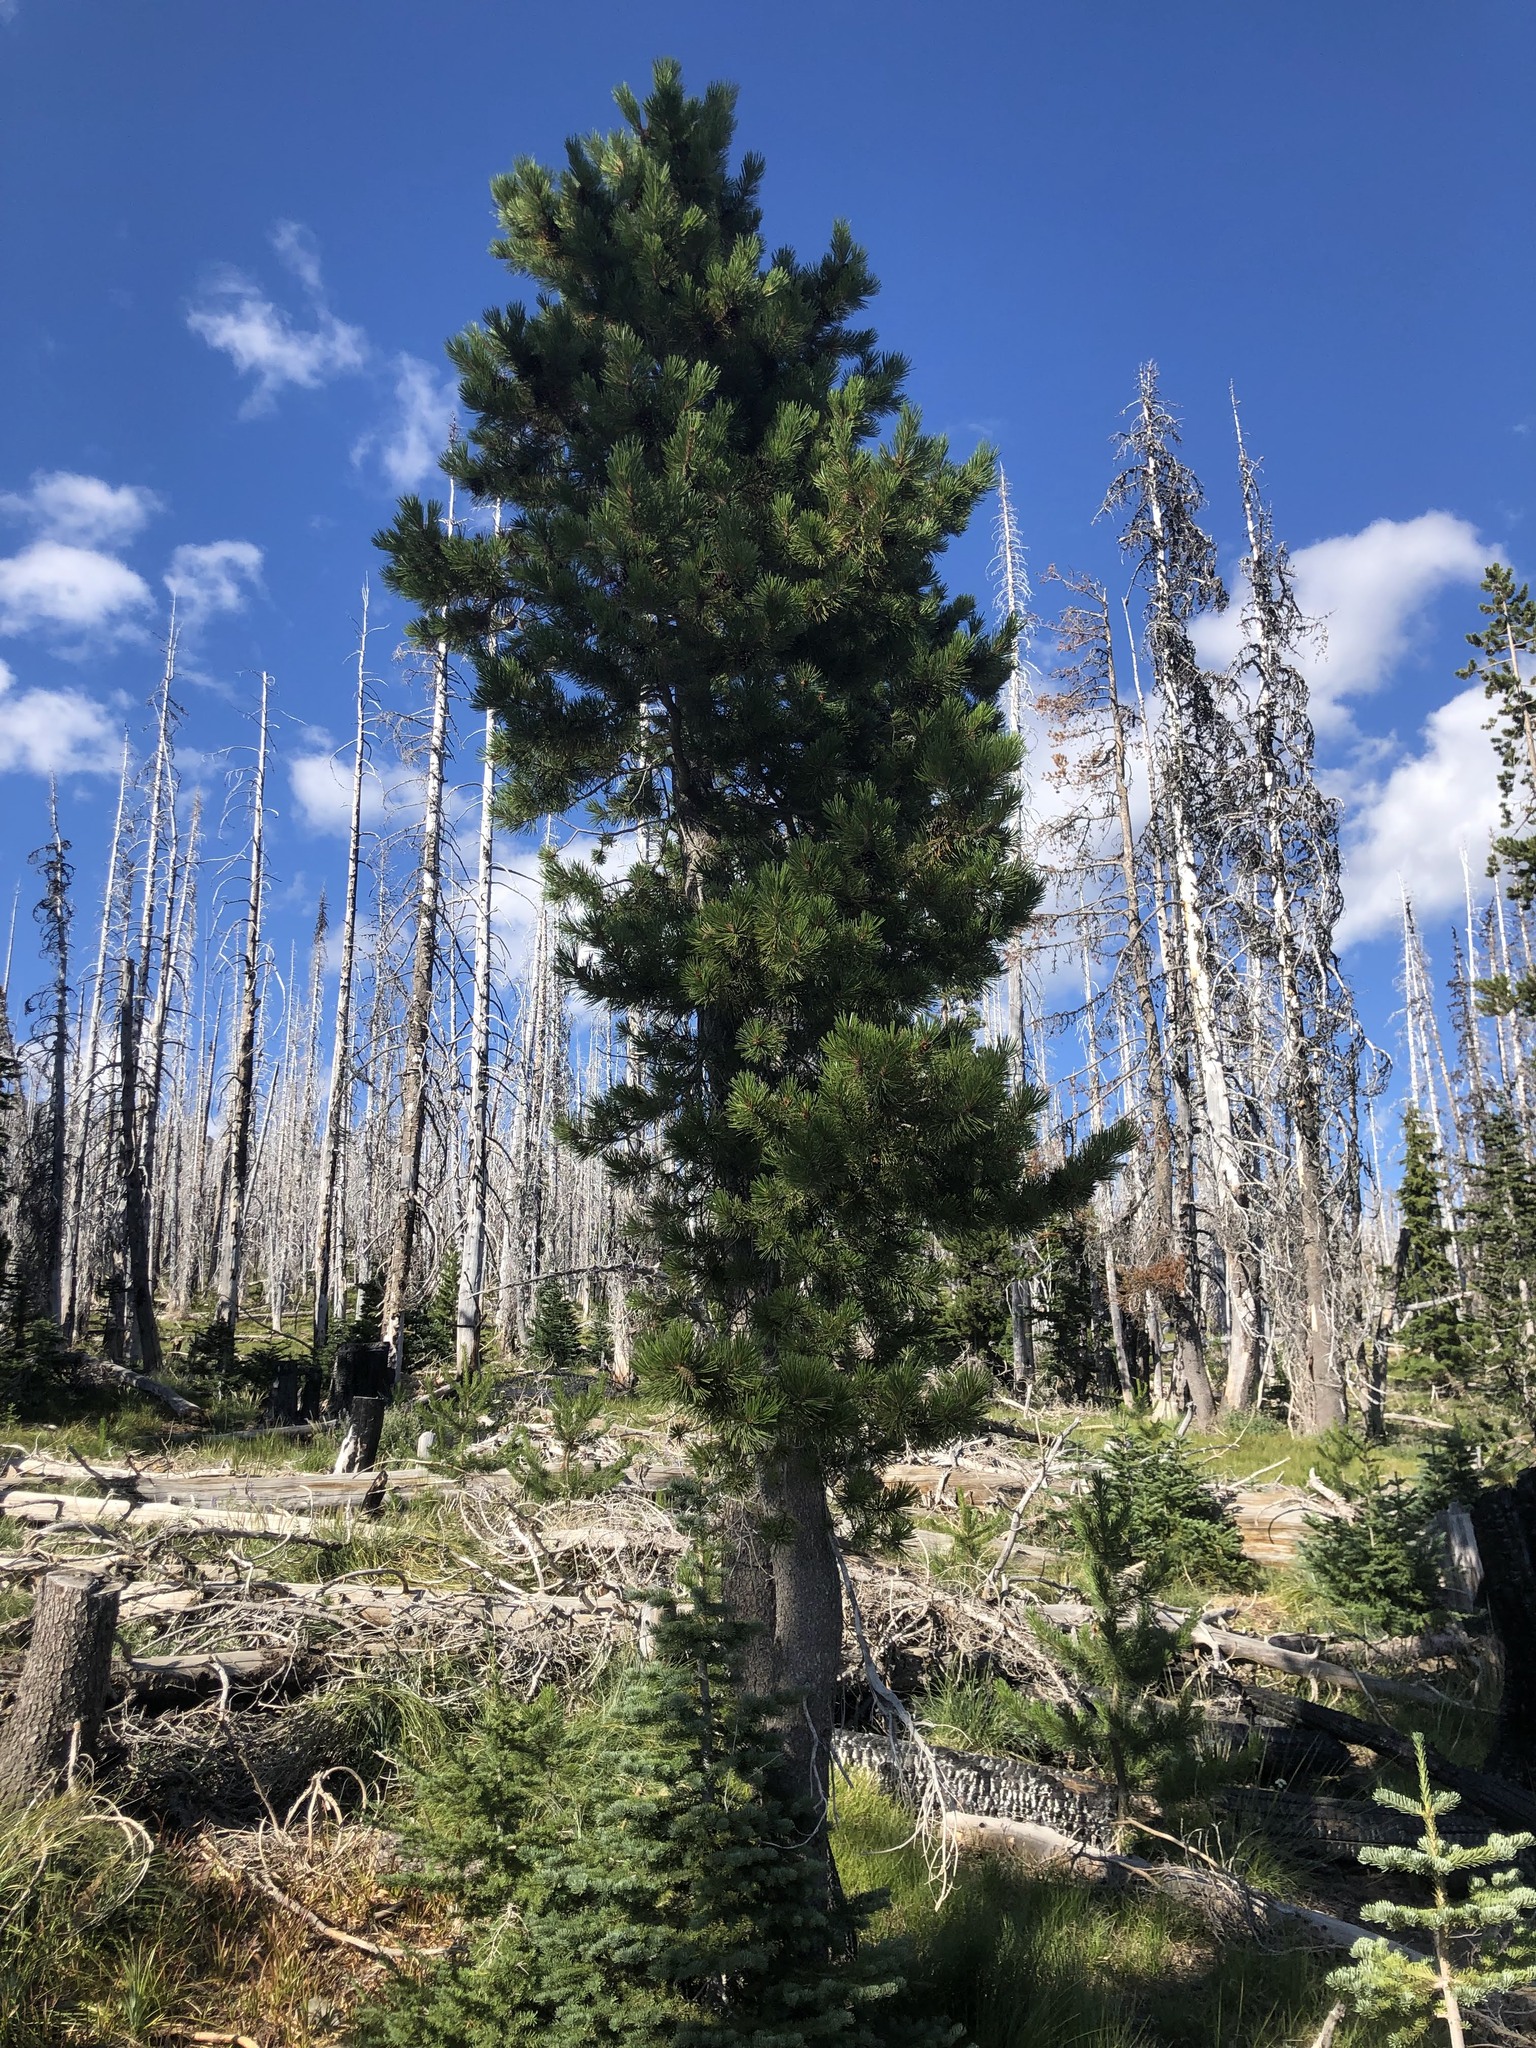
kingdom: Plantae
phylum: Tracheophyta
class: Pinopsida
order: Pinales
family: Pinaceae
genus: Pinus
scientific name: Pinus contorta
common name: Lodgepole pine
